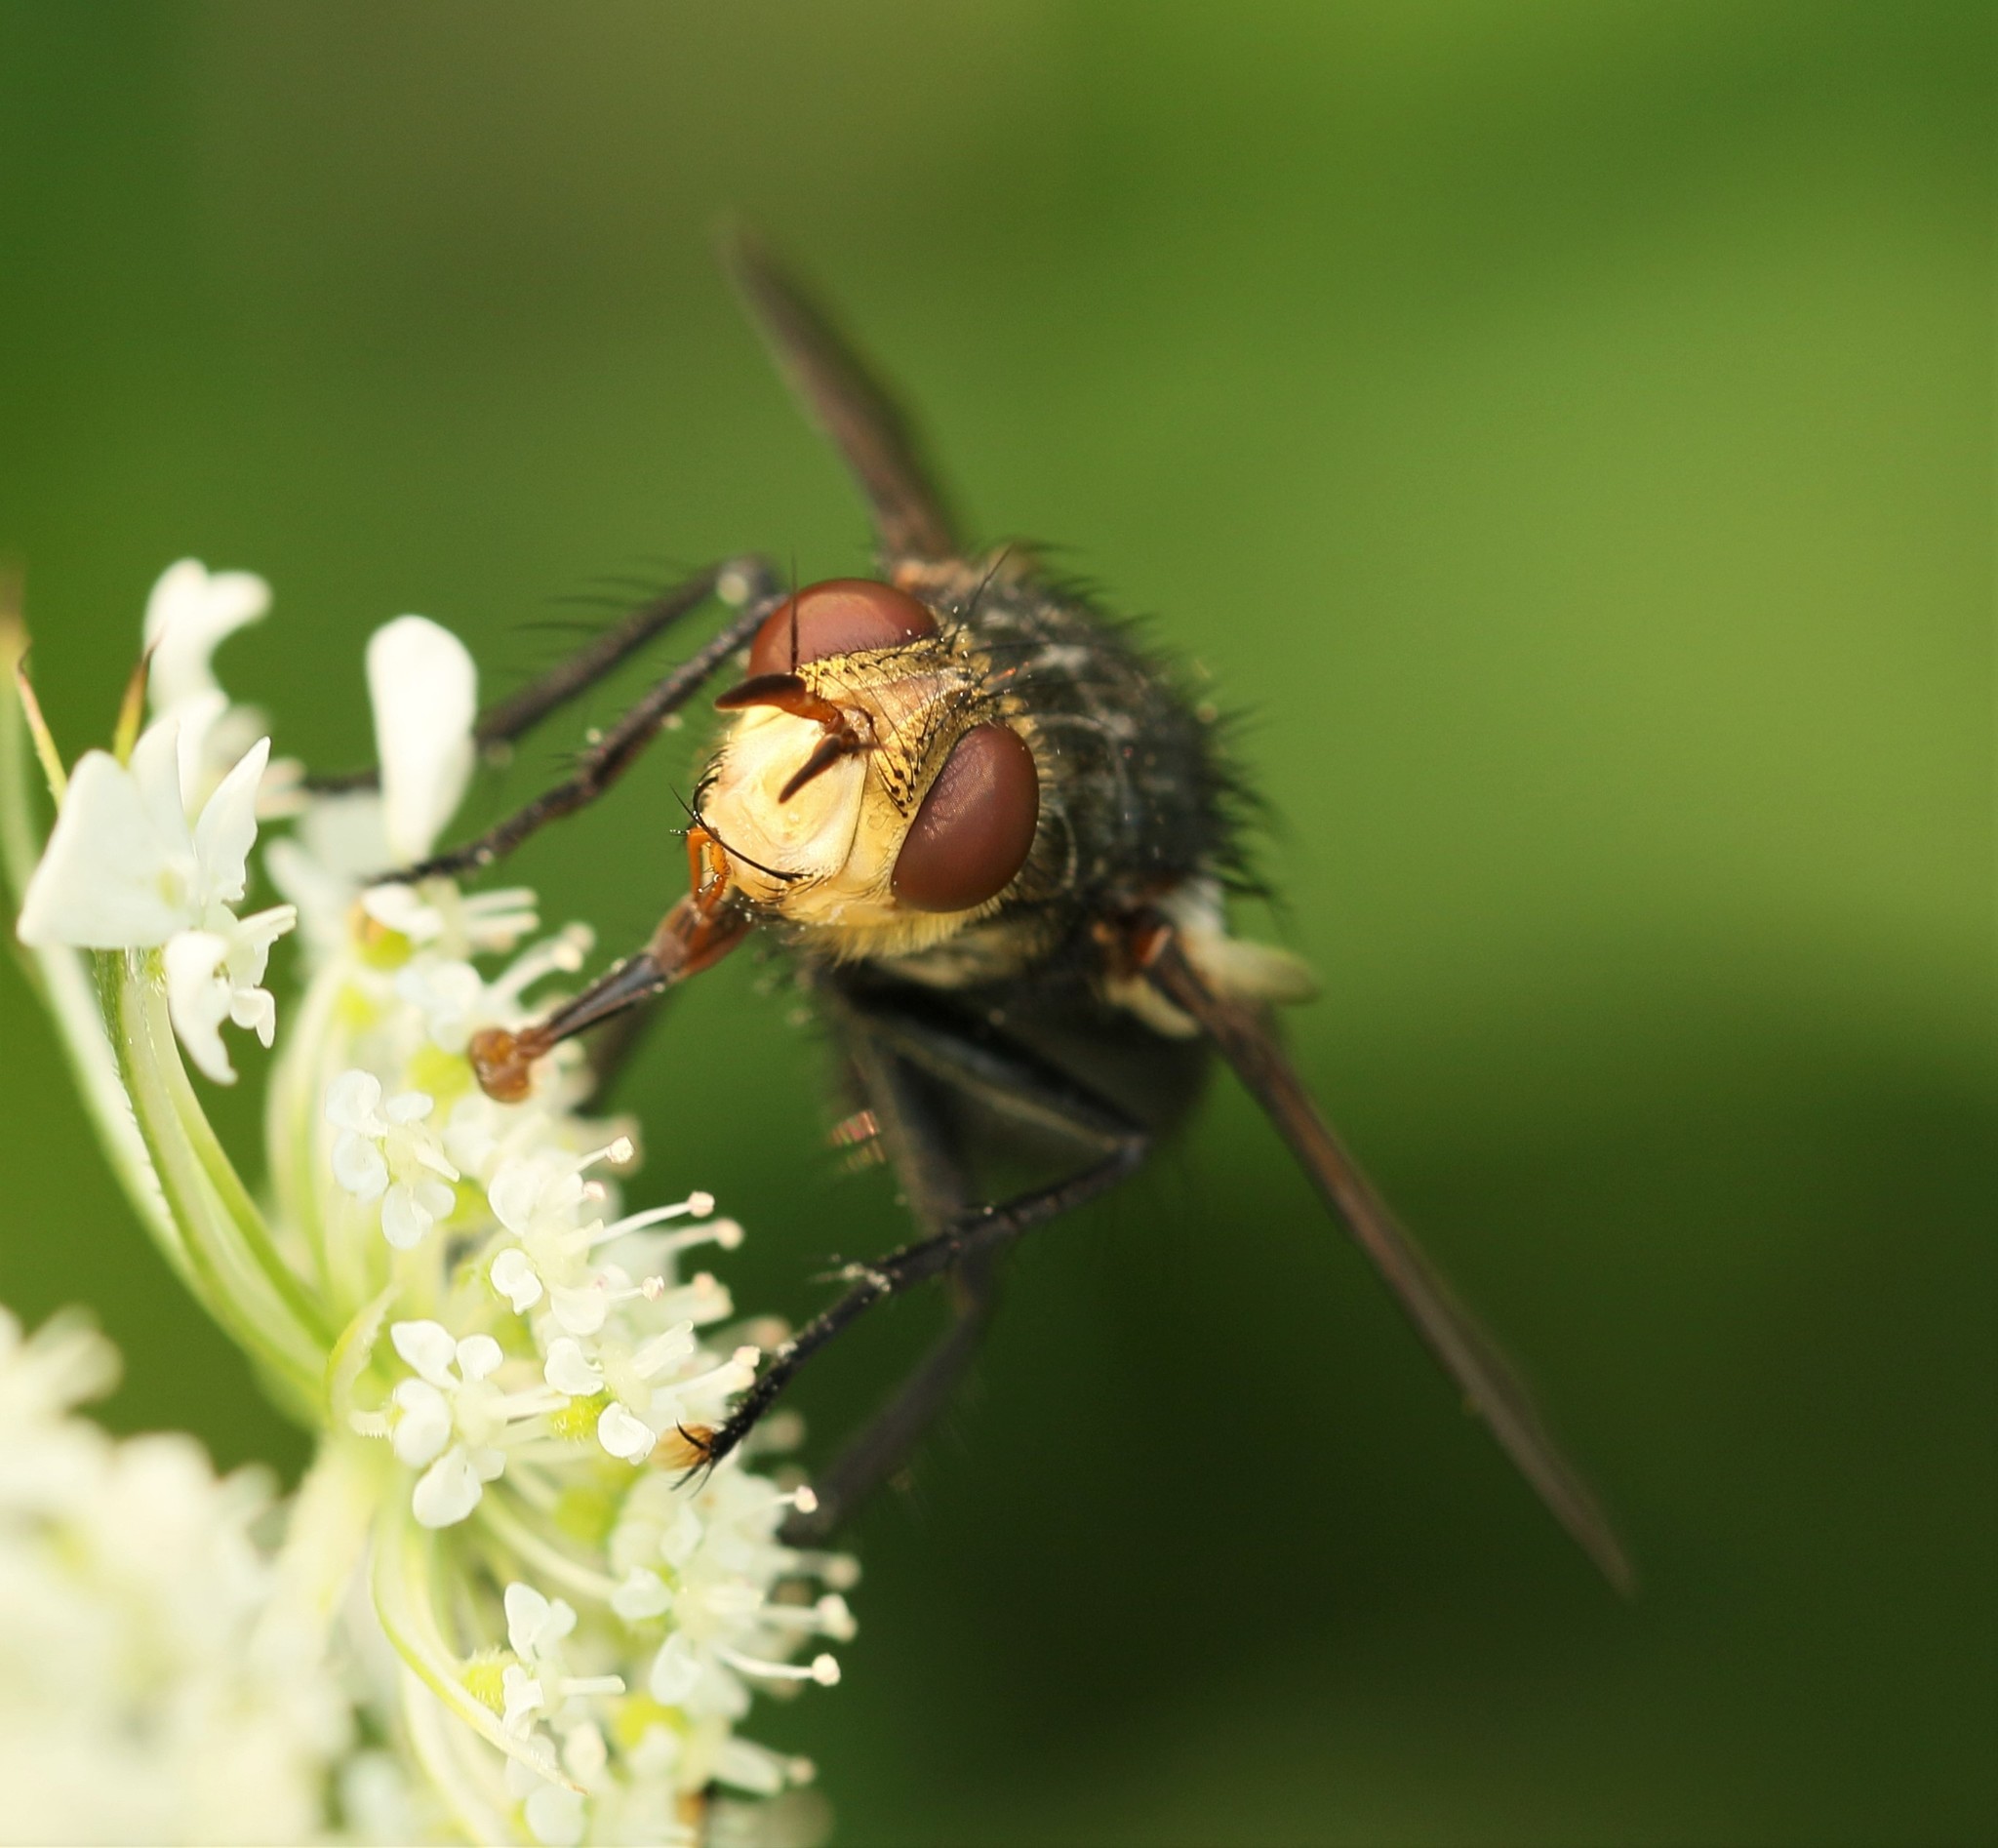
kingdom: Animalia
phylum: Arthropoda
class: Insecta
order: Diptera
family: Tachinidae
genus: Archytas
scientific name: Archytas aterrima
